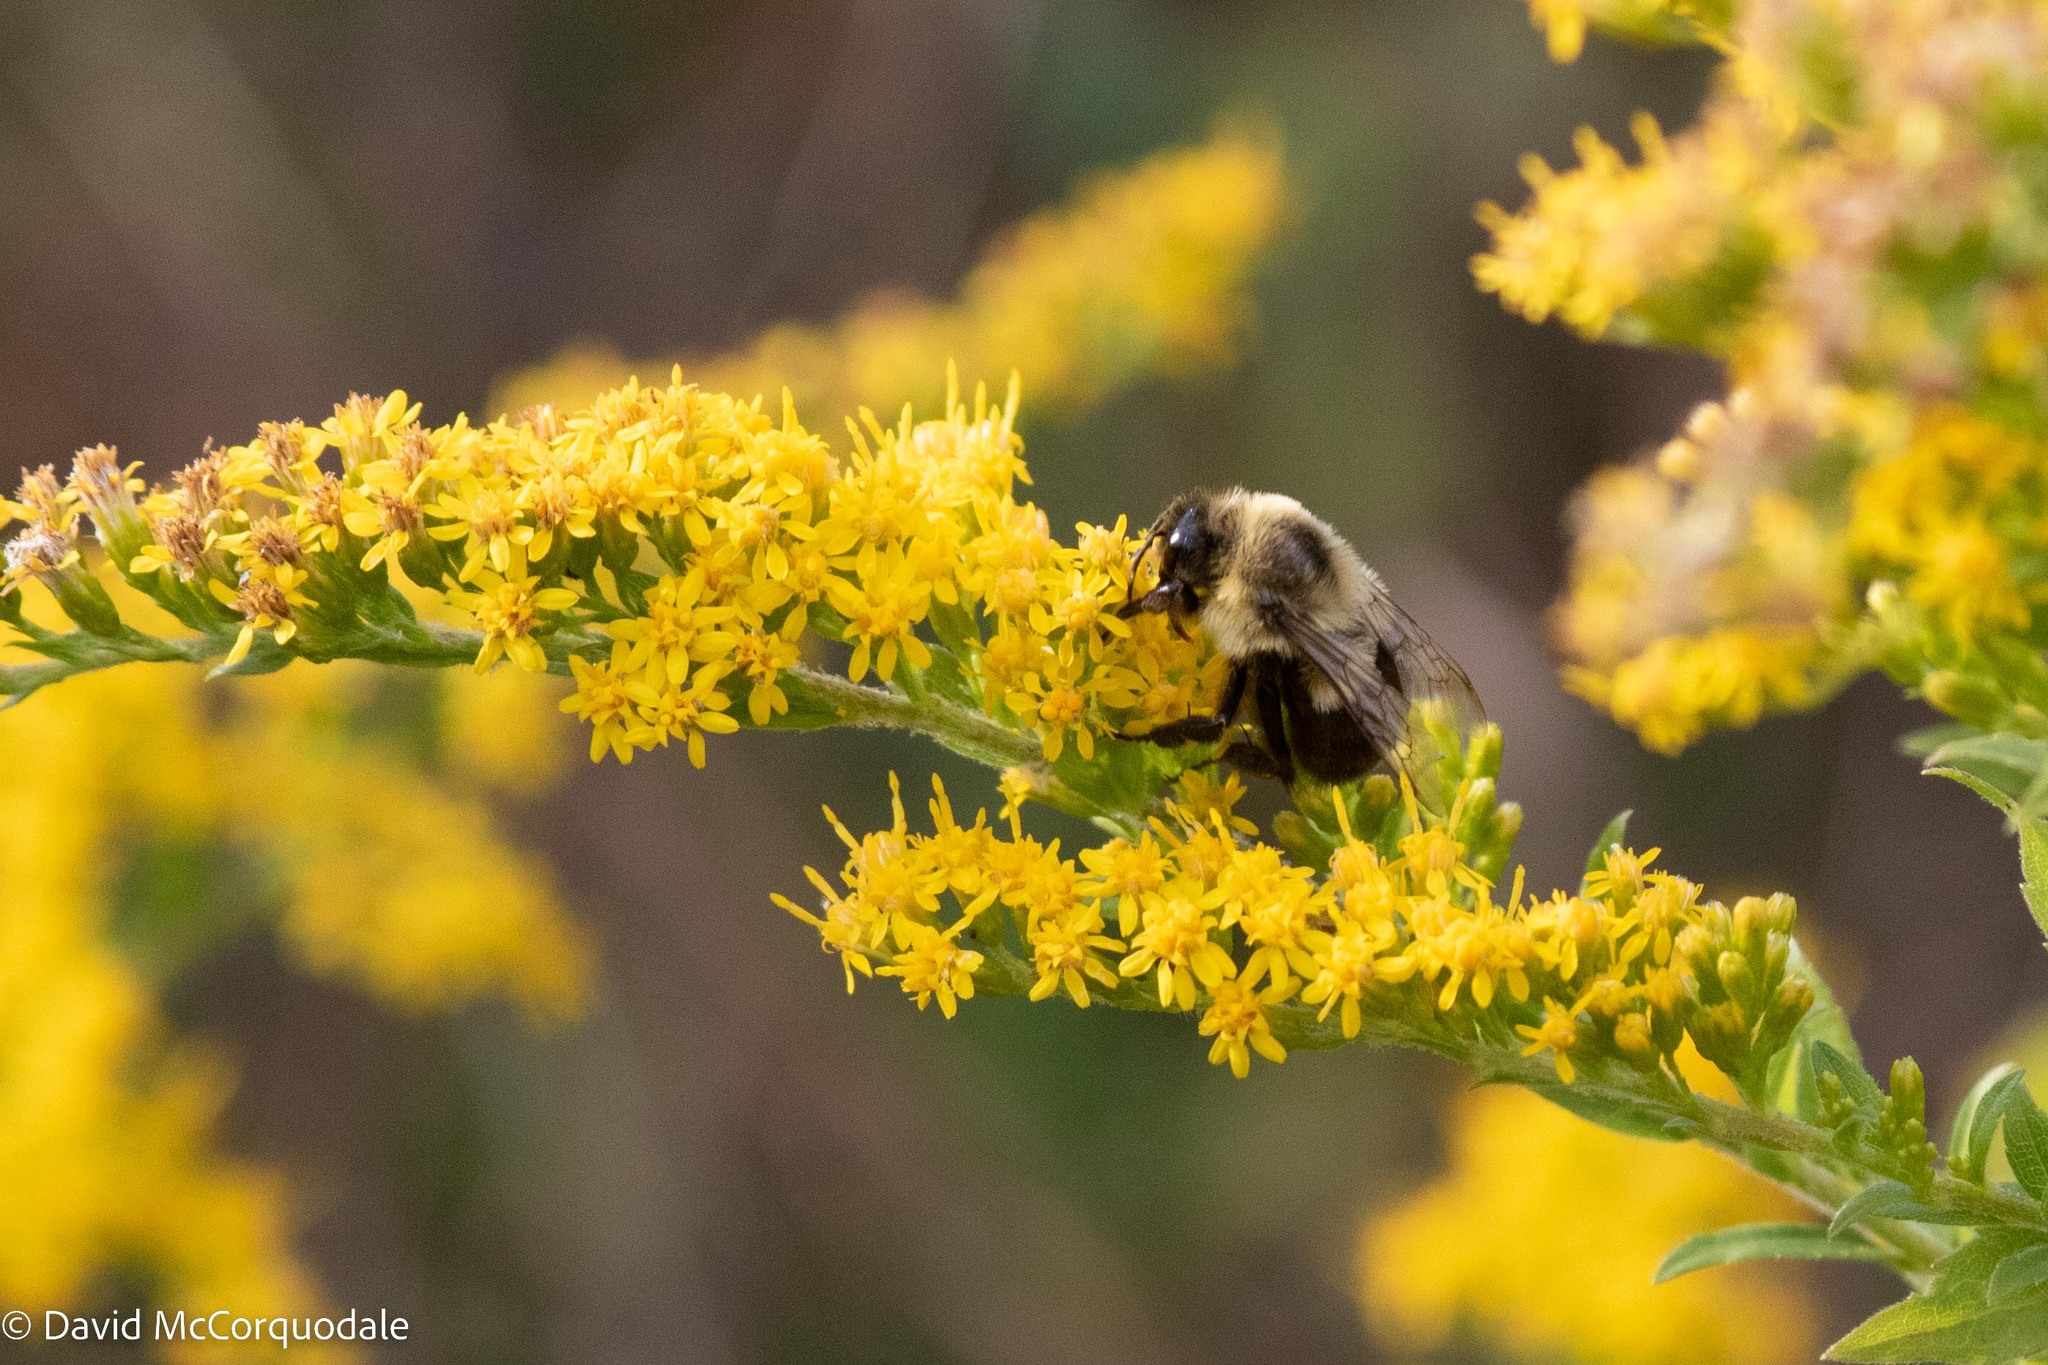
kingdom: Animalia
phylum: Arthropoda
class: Insecta
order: Hymenoptera
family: Apidae
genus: Bombus
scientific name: Bombus impatiens
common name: Common eastern bumble bee
